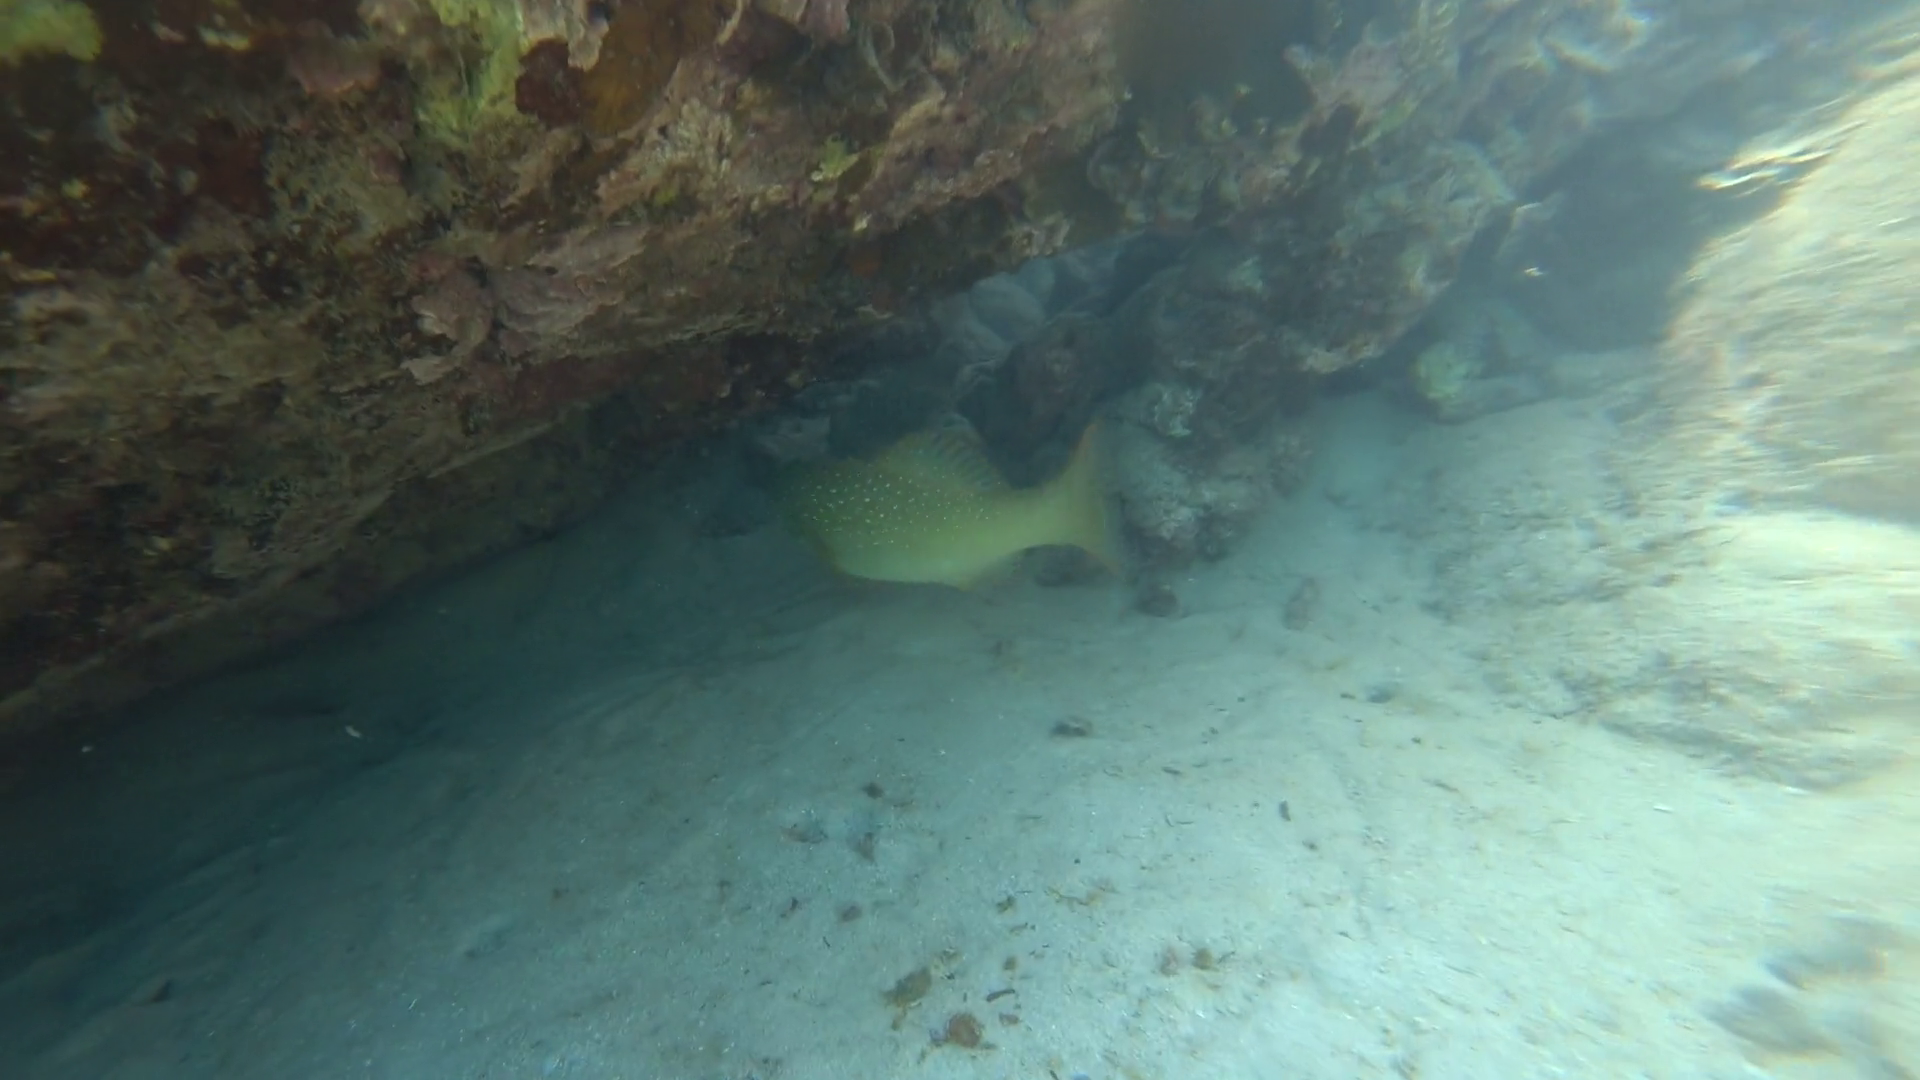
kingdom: Animalia
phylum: Chordata
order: Perciformes
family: Serranidae
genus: Plectropomus
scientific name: Plectropomus maculatus
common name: Spotted coralgrouper
